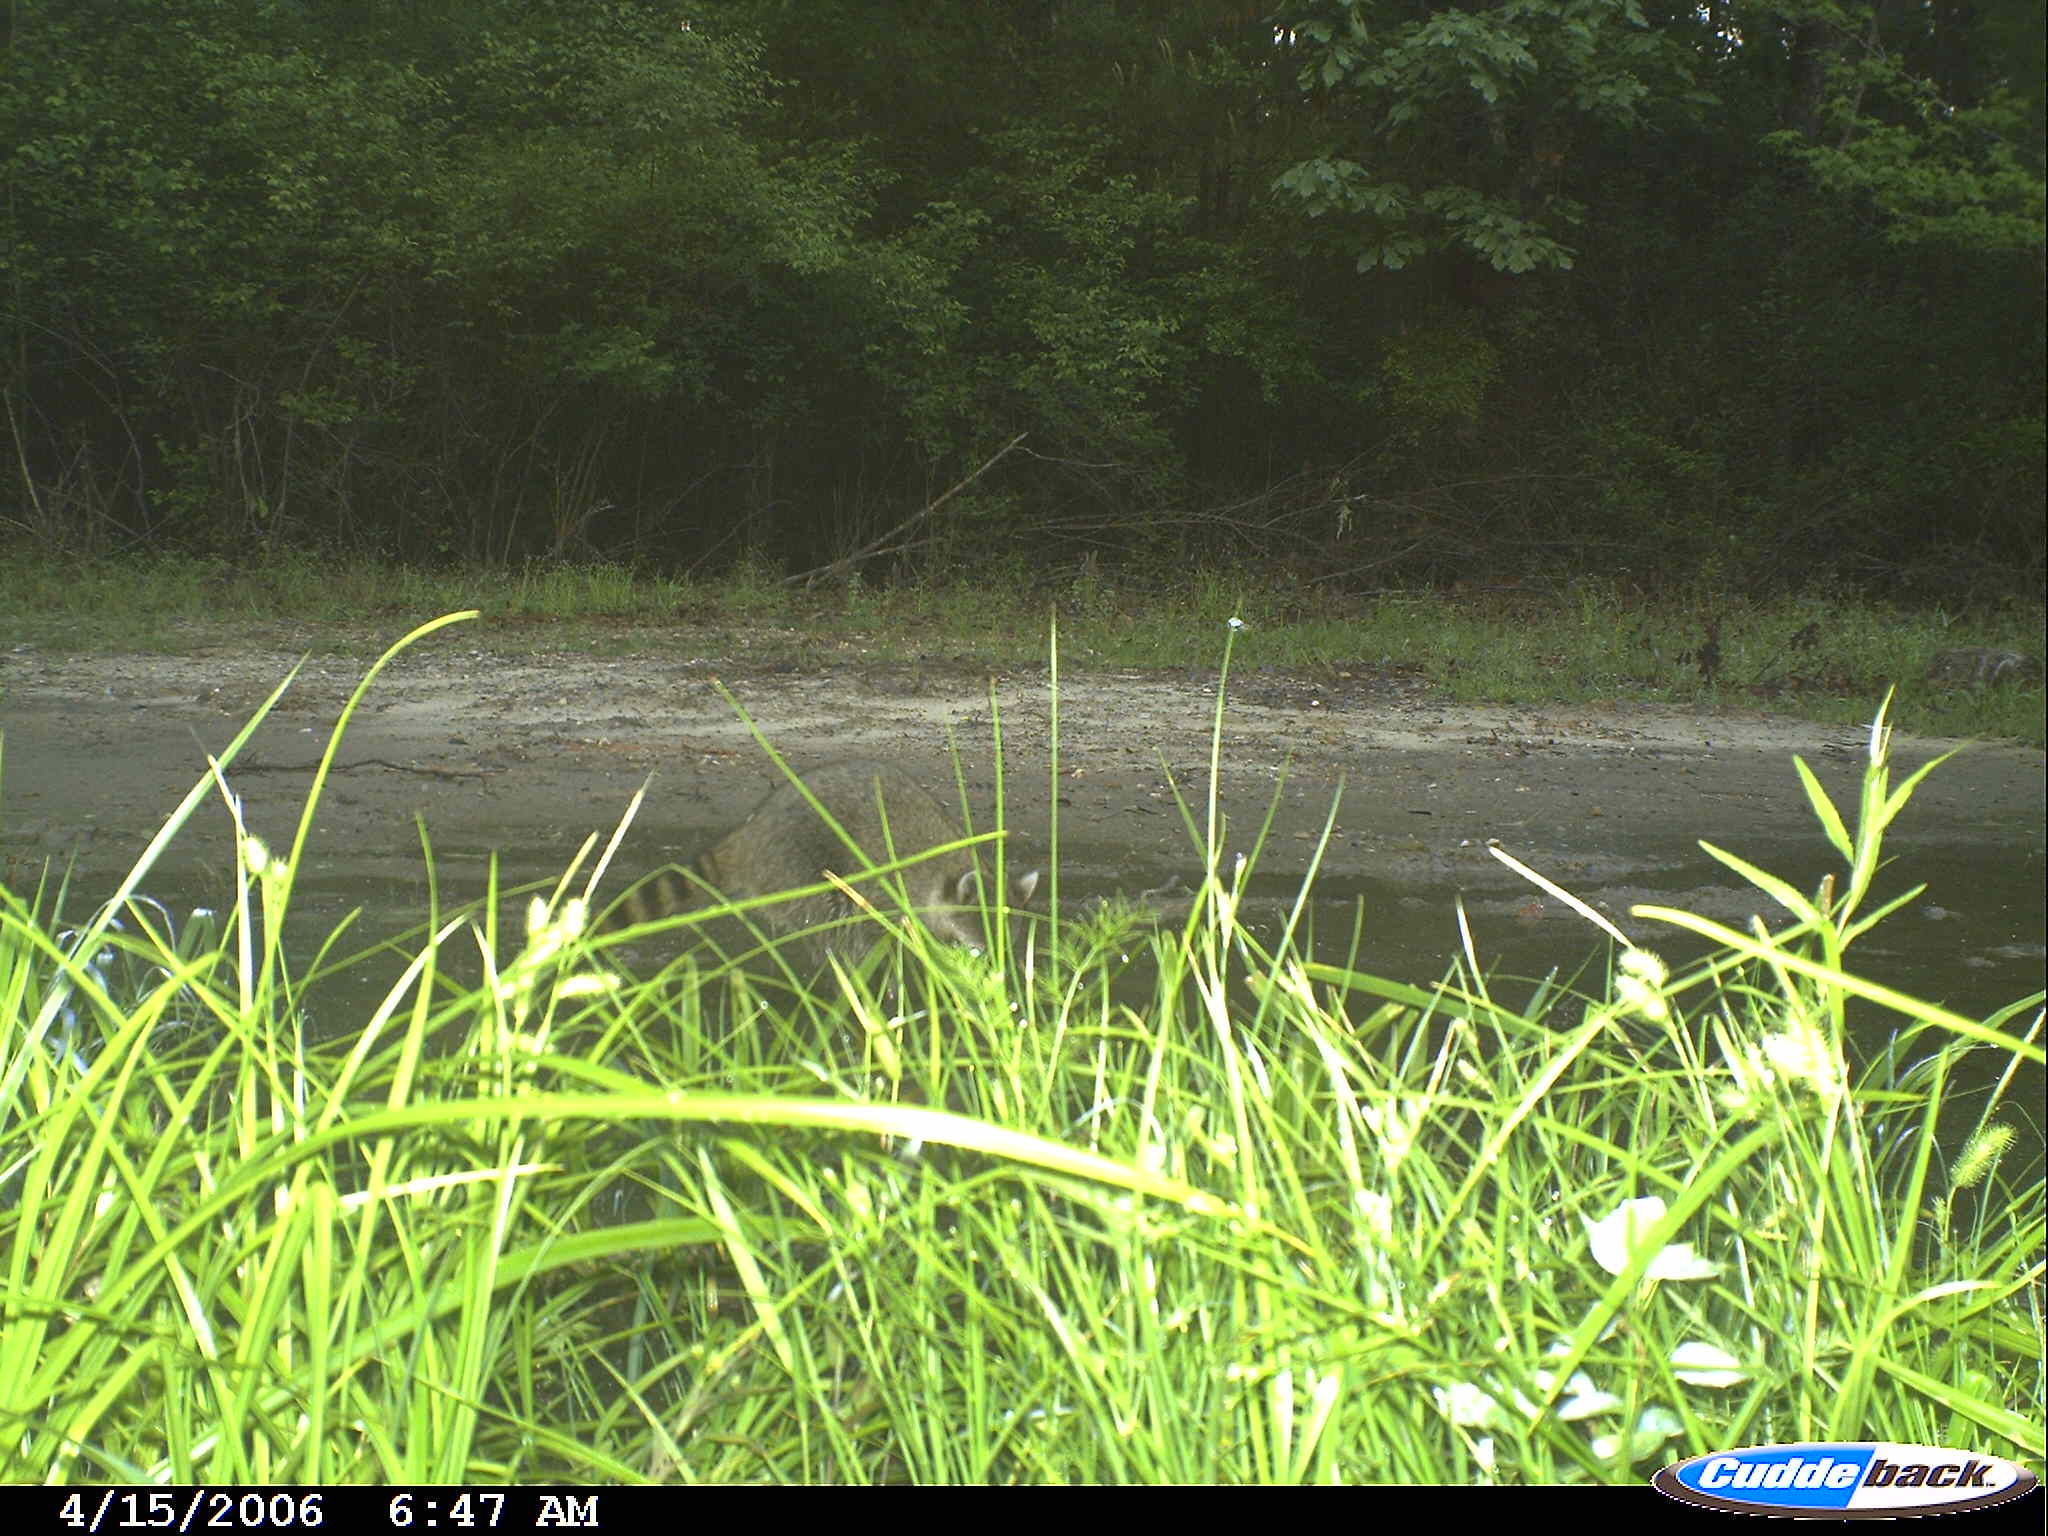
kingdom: Animalia
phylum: Chordata
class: Mammalia
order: Carnivora
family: Procyonidae
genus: Procyon
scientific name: Procyon lotor
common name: Raccoon
